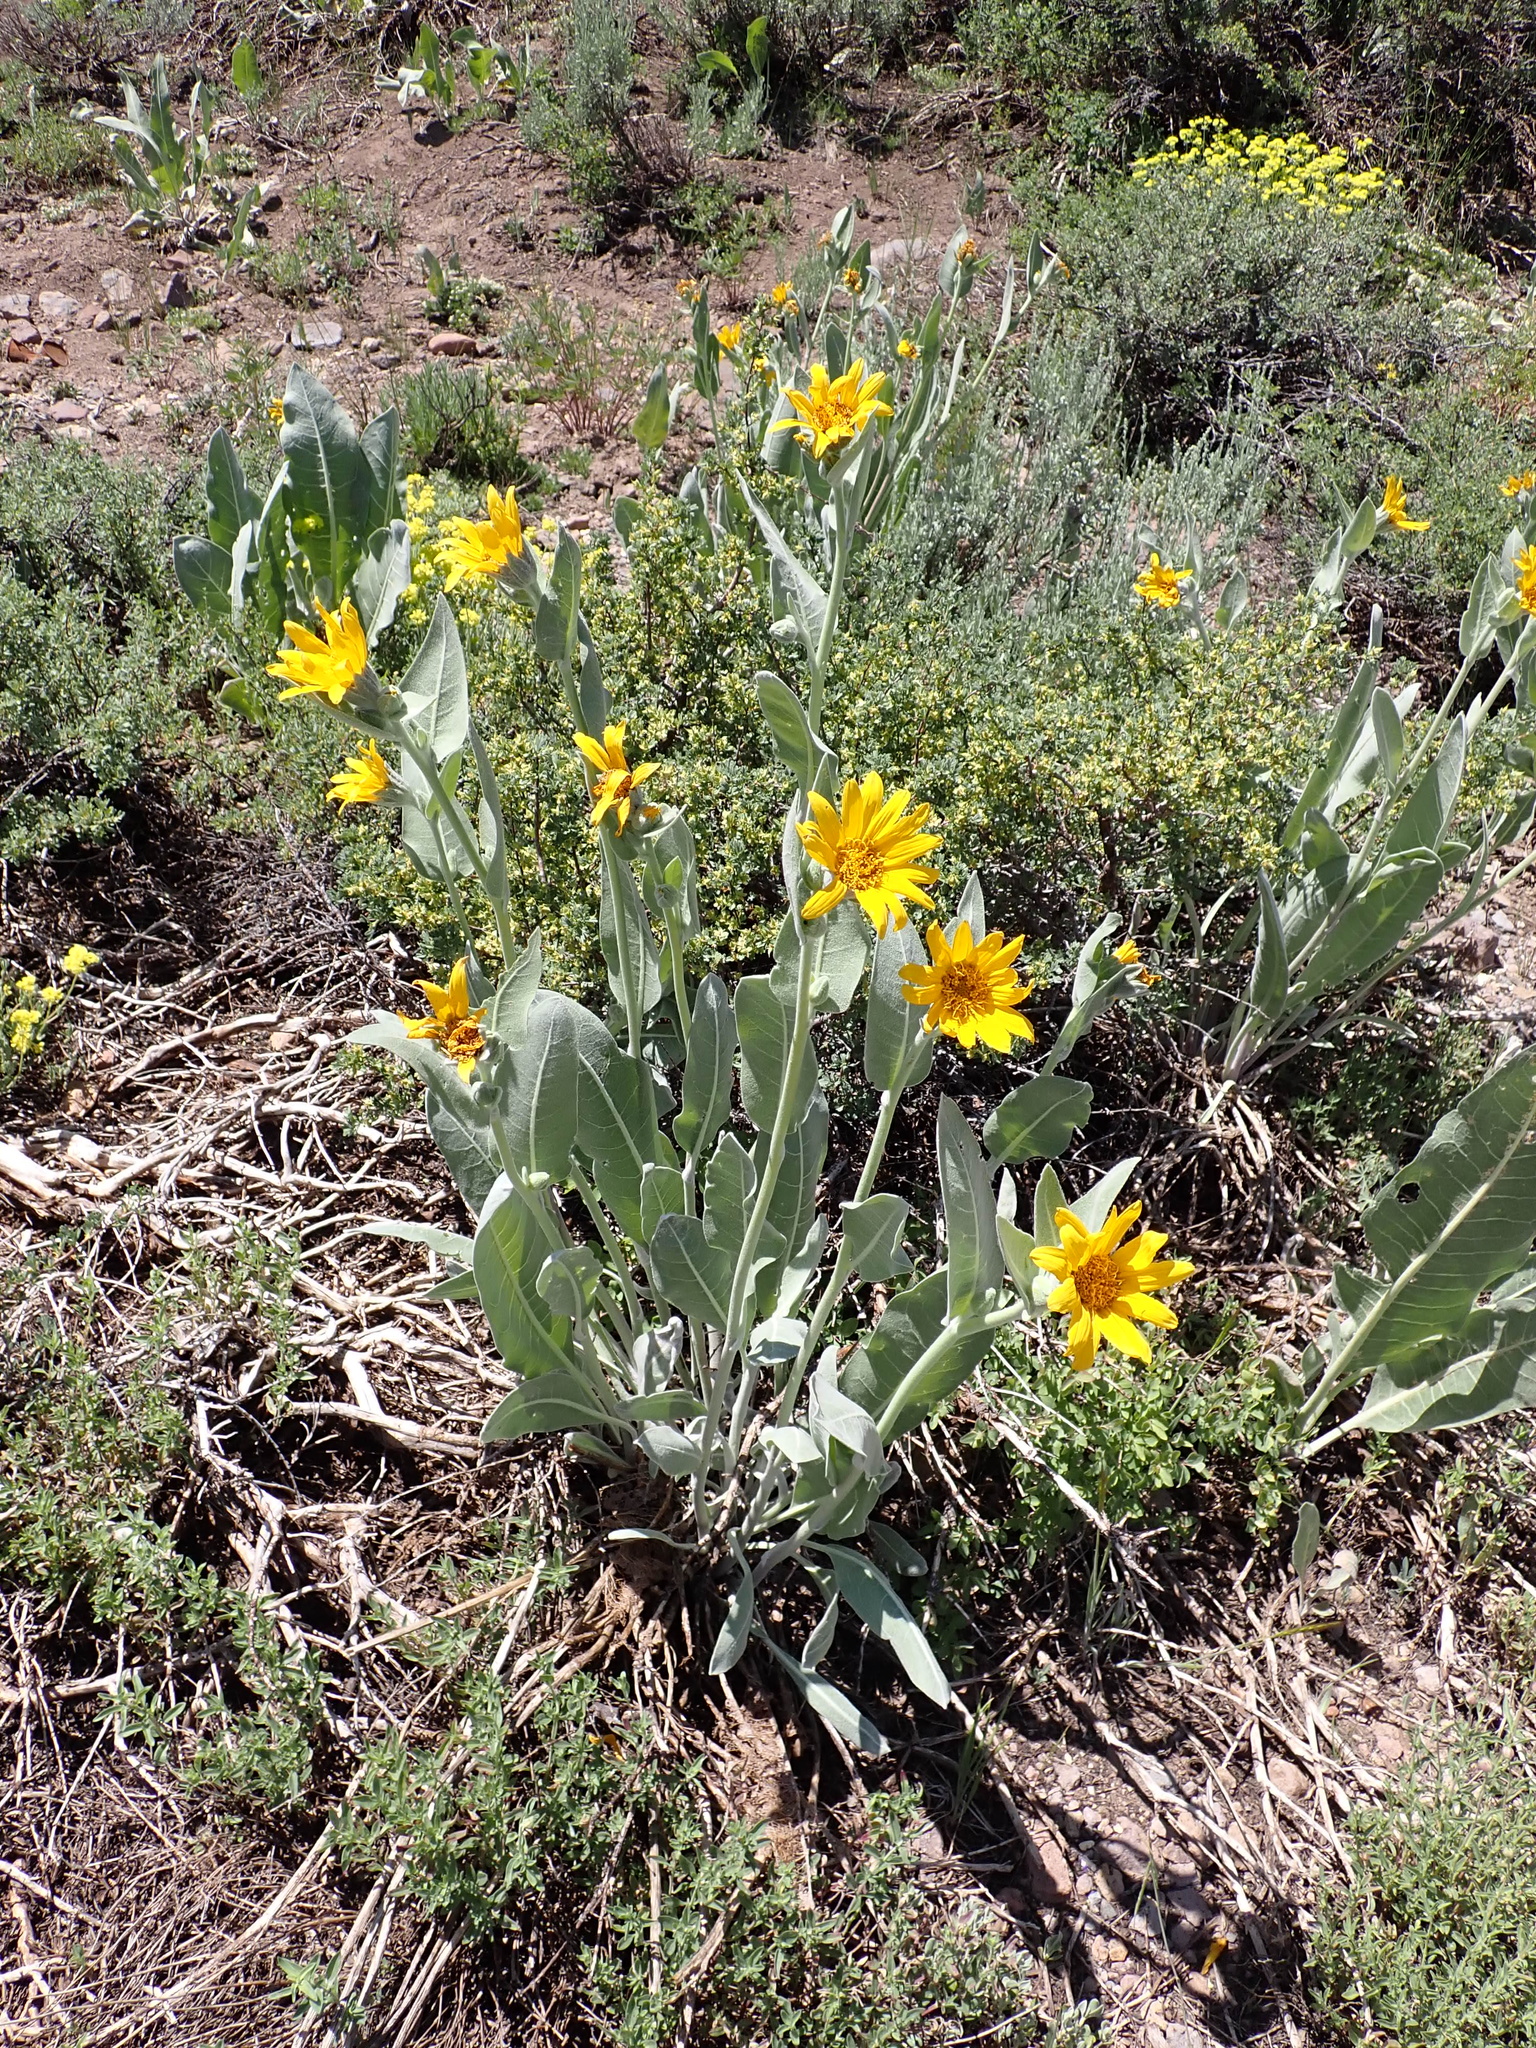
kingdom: Plantae
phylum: Tracheophyta
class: Magnoliopsida
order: Asterales
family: Asteraceae
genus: Wyethia
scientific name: Wyethia mollis
